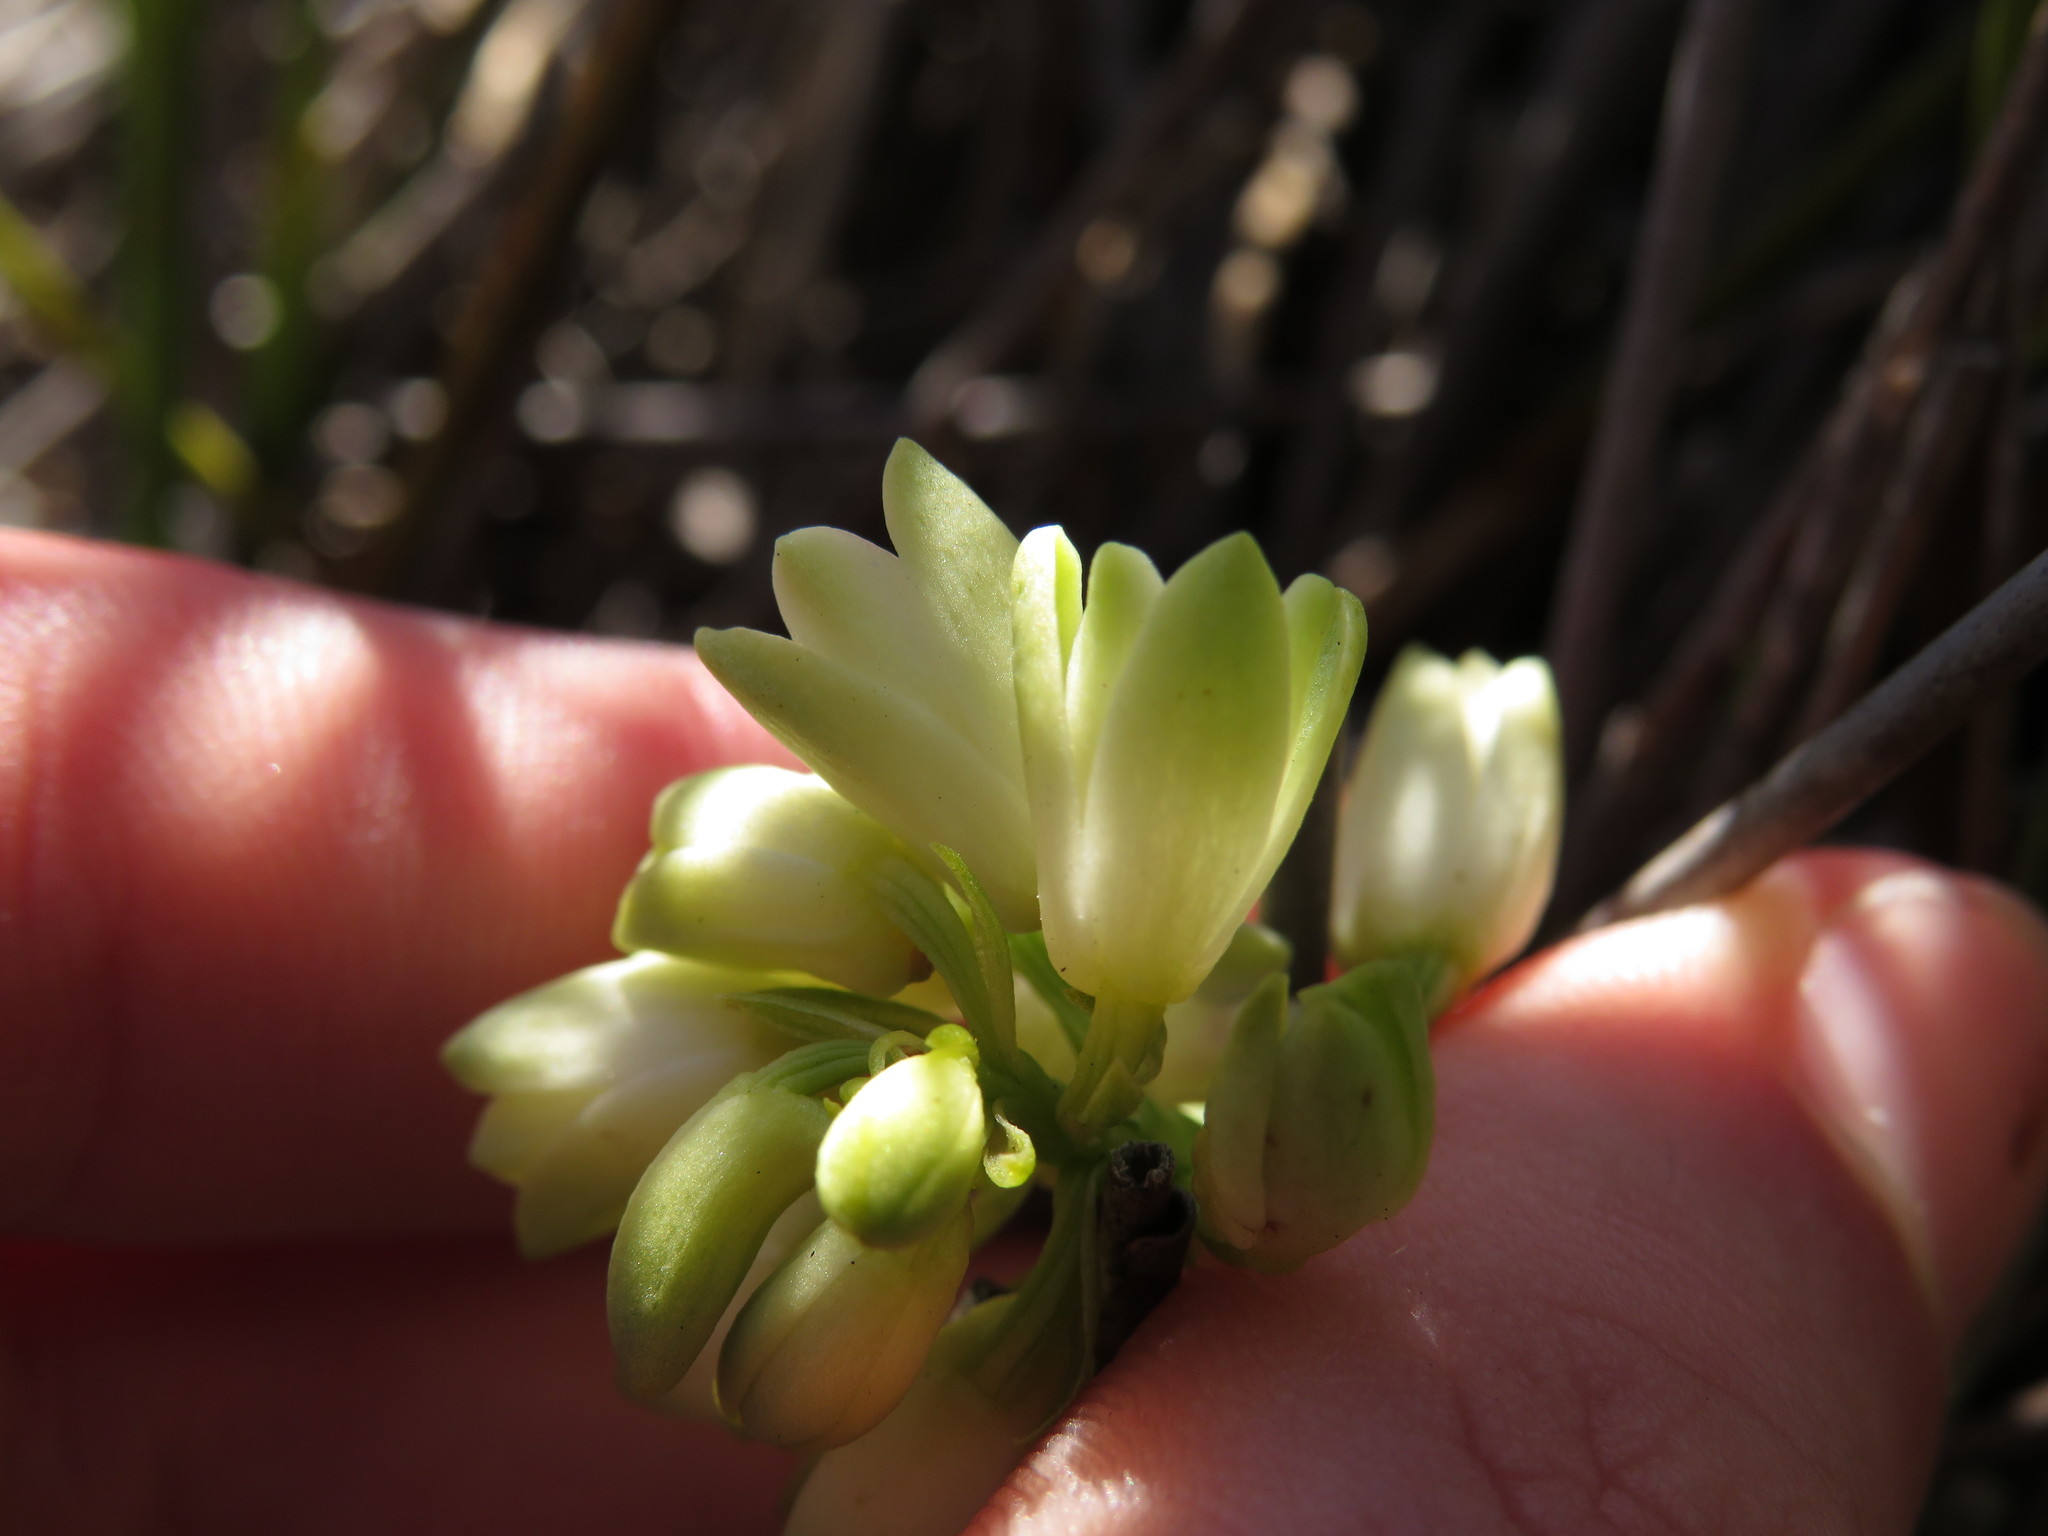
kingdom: Plantae
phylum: Tracheophyta
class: Liliopsida
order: Asparagales
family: Orchidaceae
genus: Eulophia
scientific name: Eulophia aculeata
